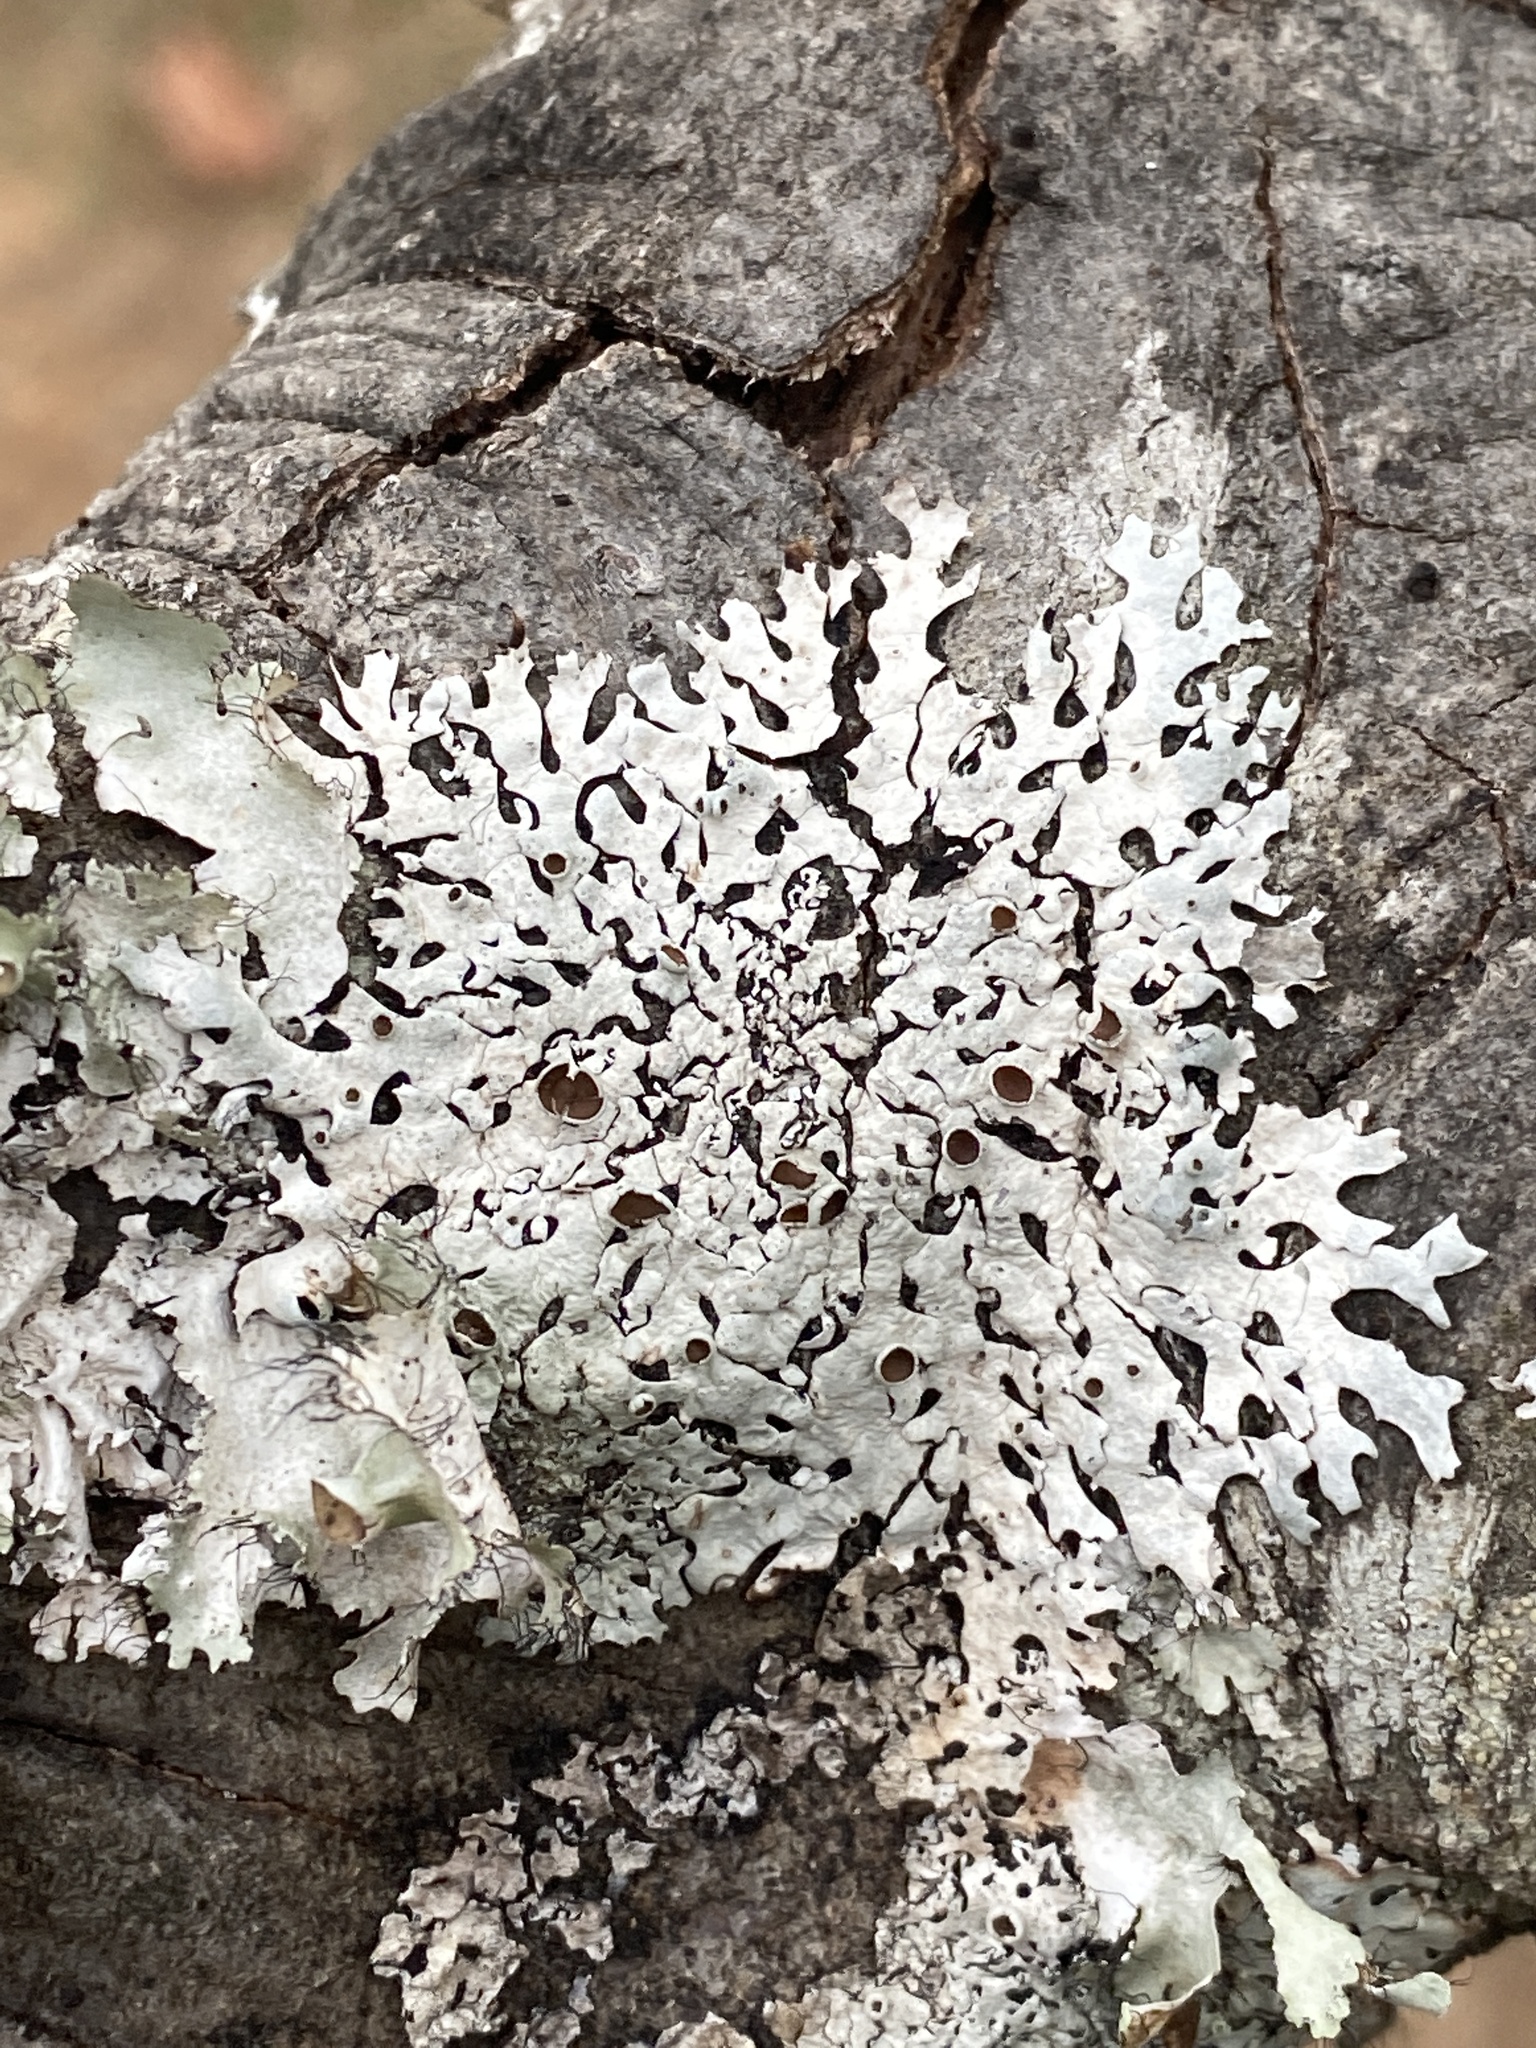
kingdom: Fungi
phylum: Ascomycota
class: Lecanoromycetes
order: Lecanorales
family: Parmeliaceae
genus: Hypotrachyna
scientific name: Hypotrachyna livida
